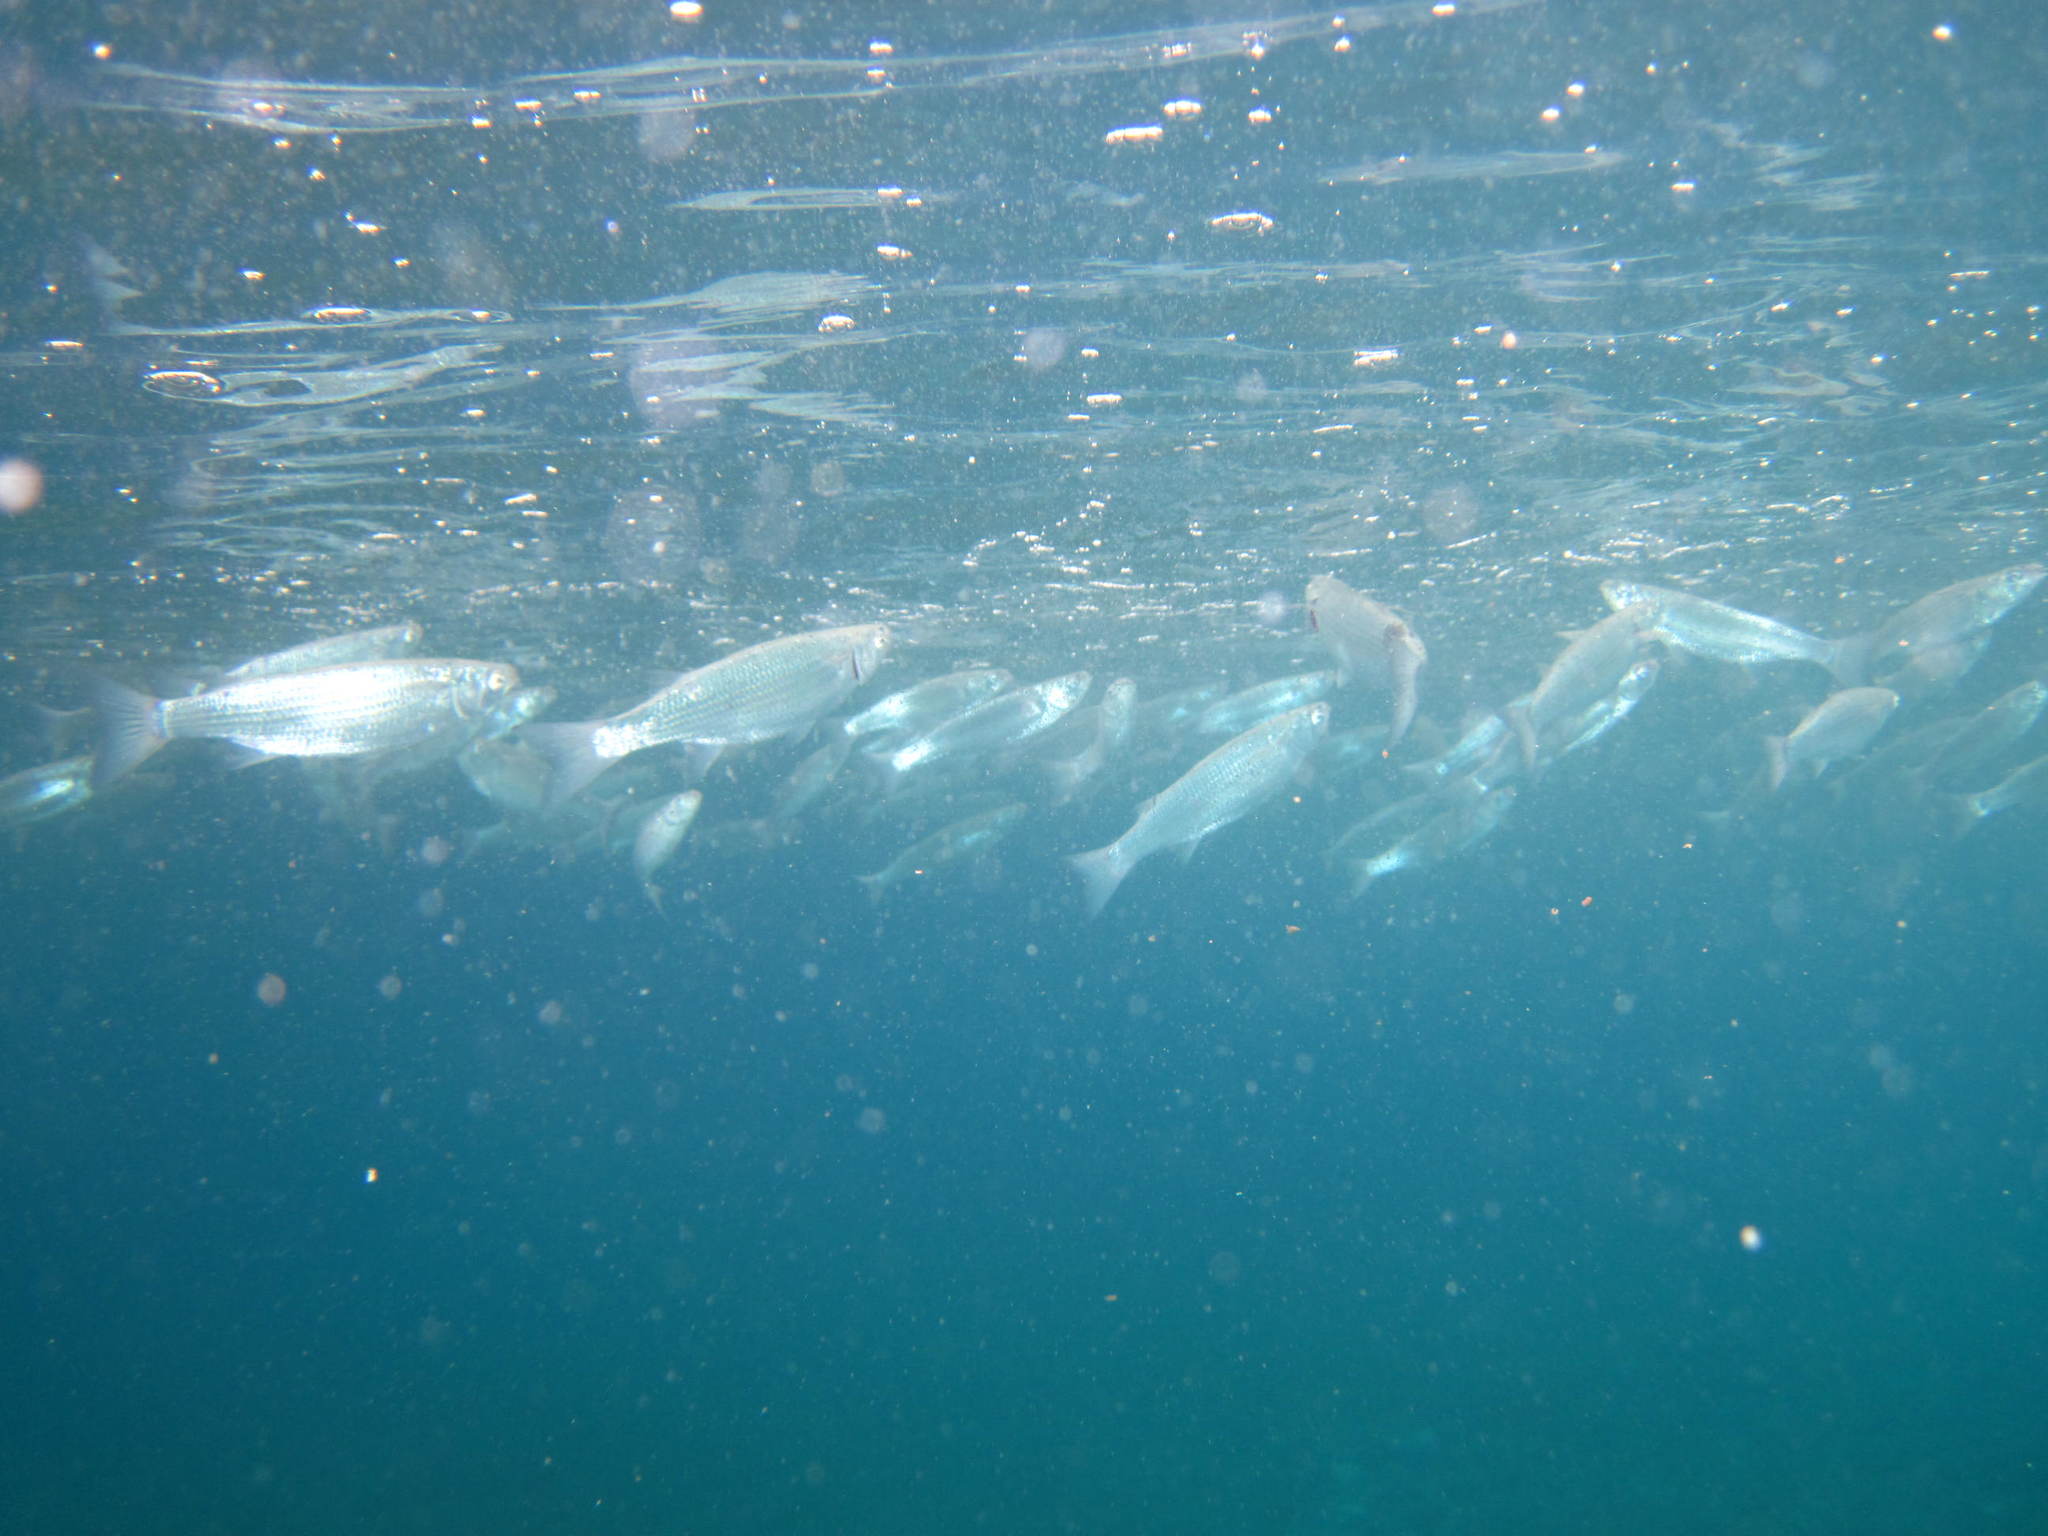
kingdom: Animalia
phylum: Chordata
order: Mugiliformes
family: Mugilidae
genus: Oedalechilus
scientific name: Oedalechilus labeo
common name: Boxlip mullet
